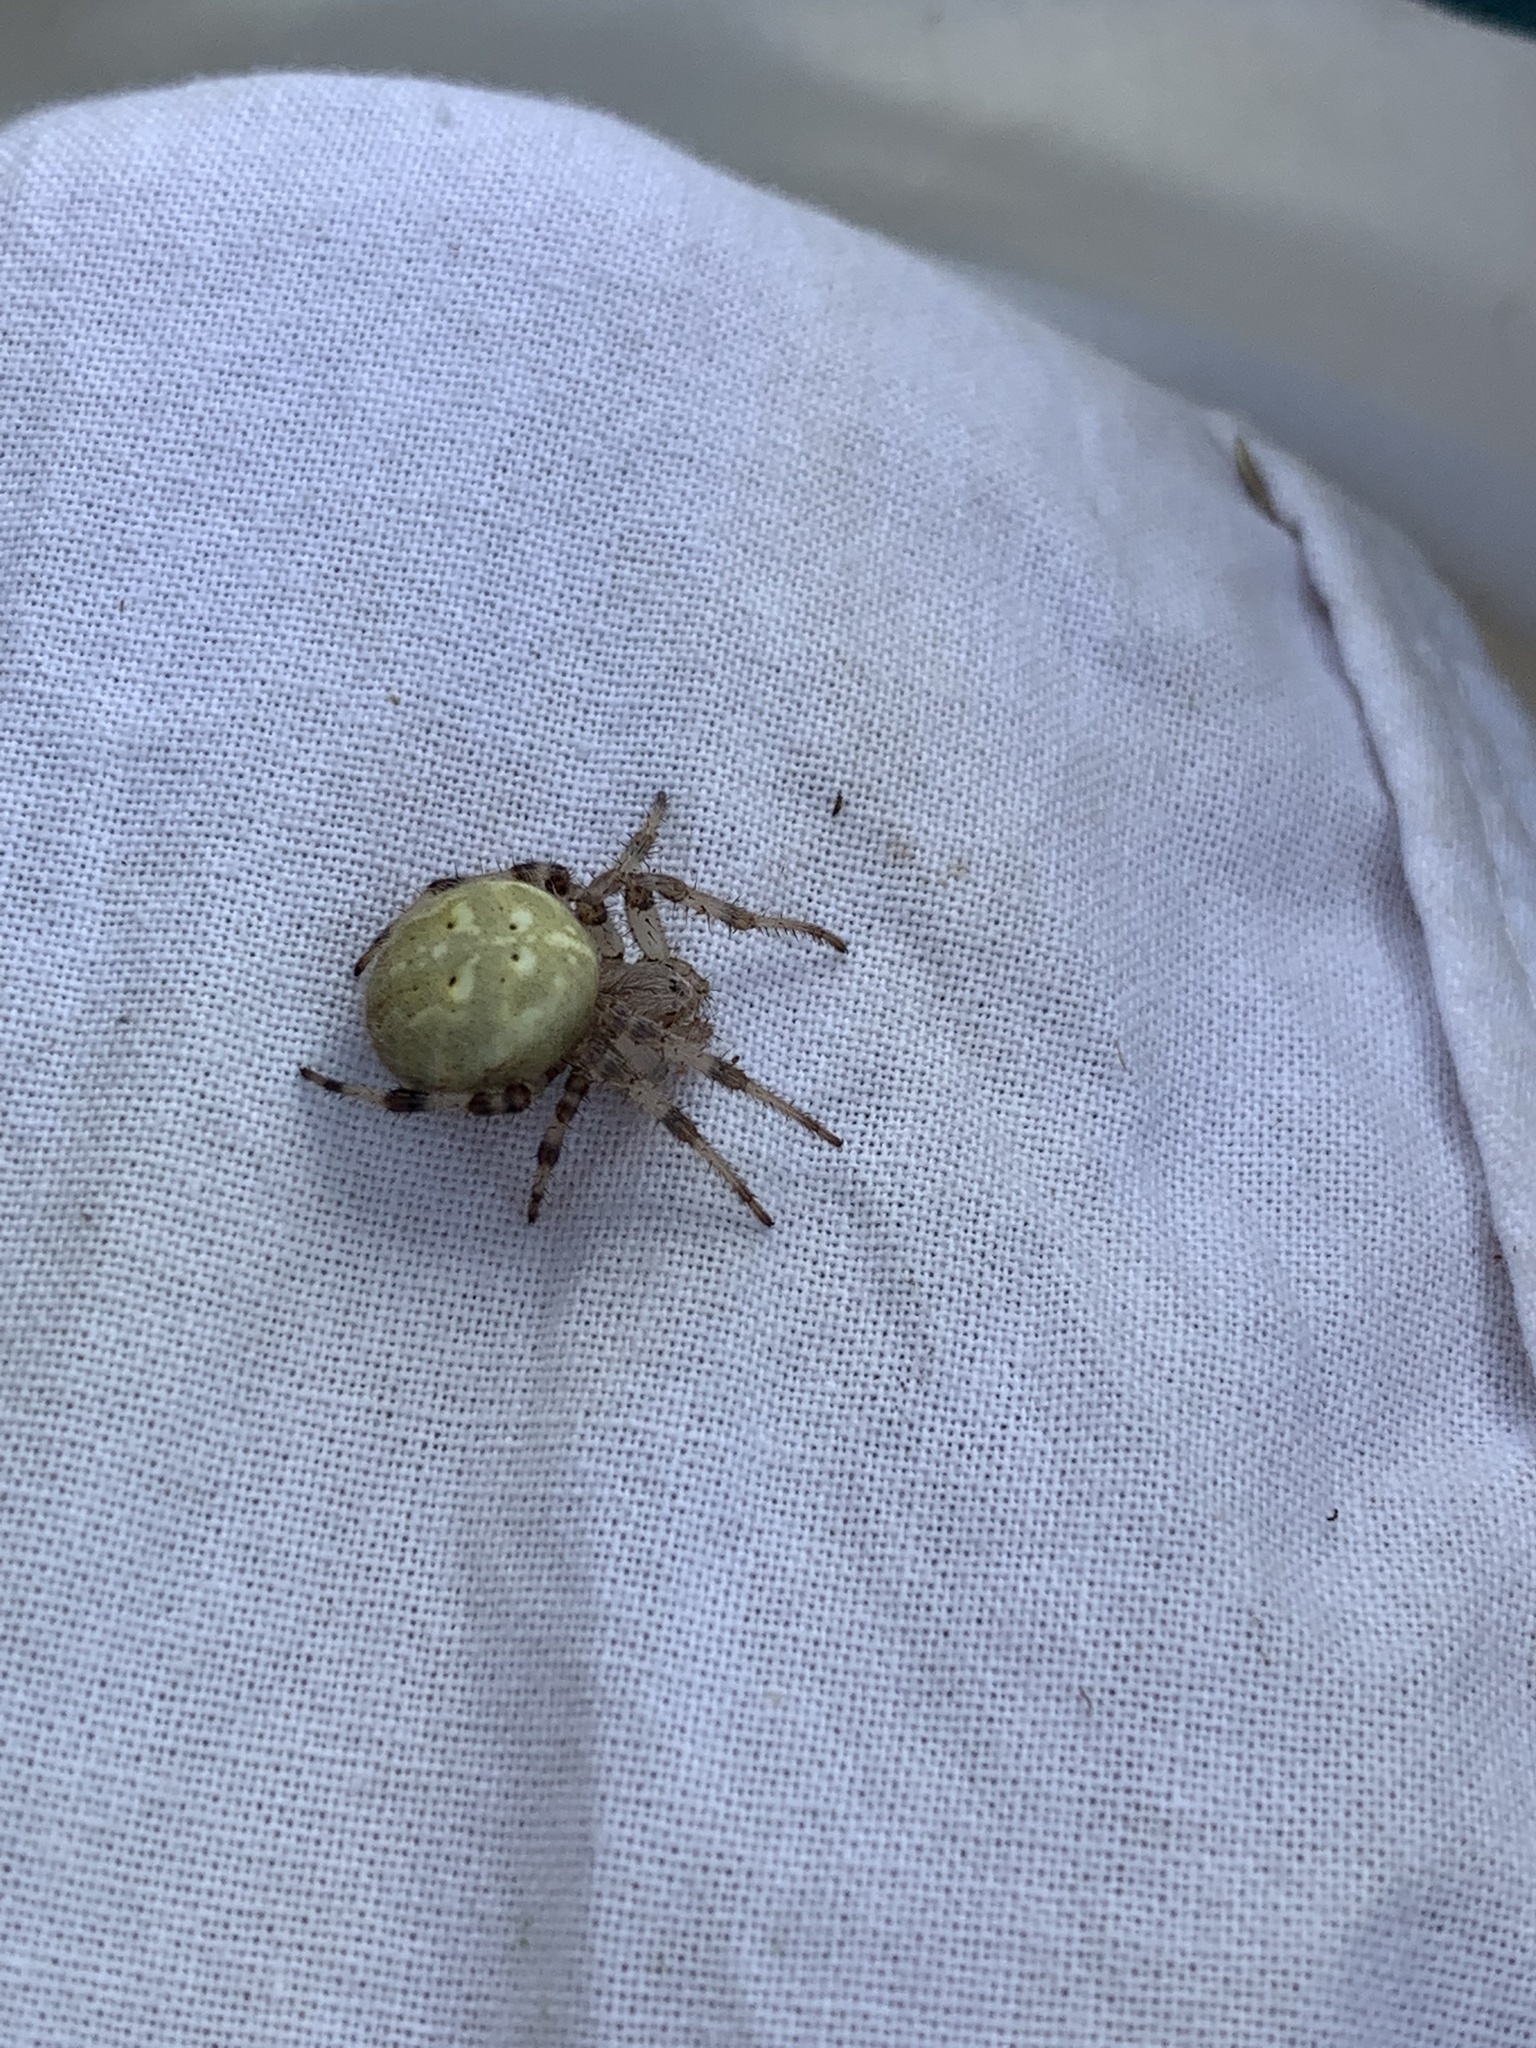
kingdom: Animalia
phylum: Arthropoda
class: Arachnida
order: Araneae
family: Araneidae
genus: Araneus
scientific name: Araneus quadratus
